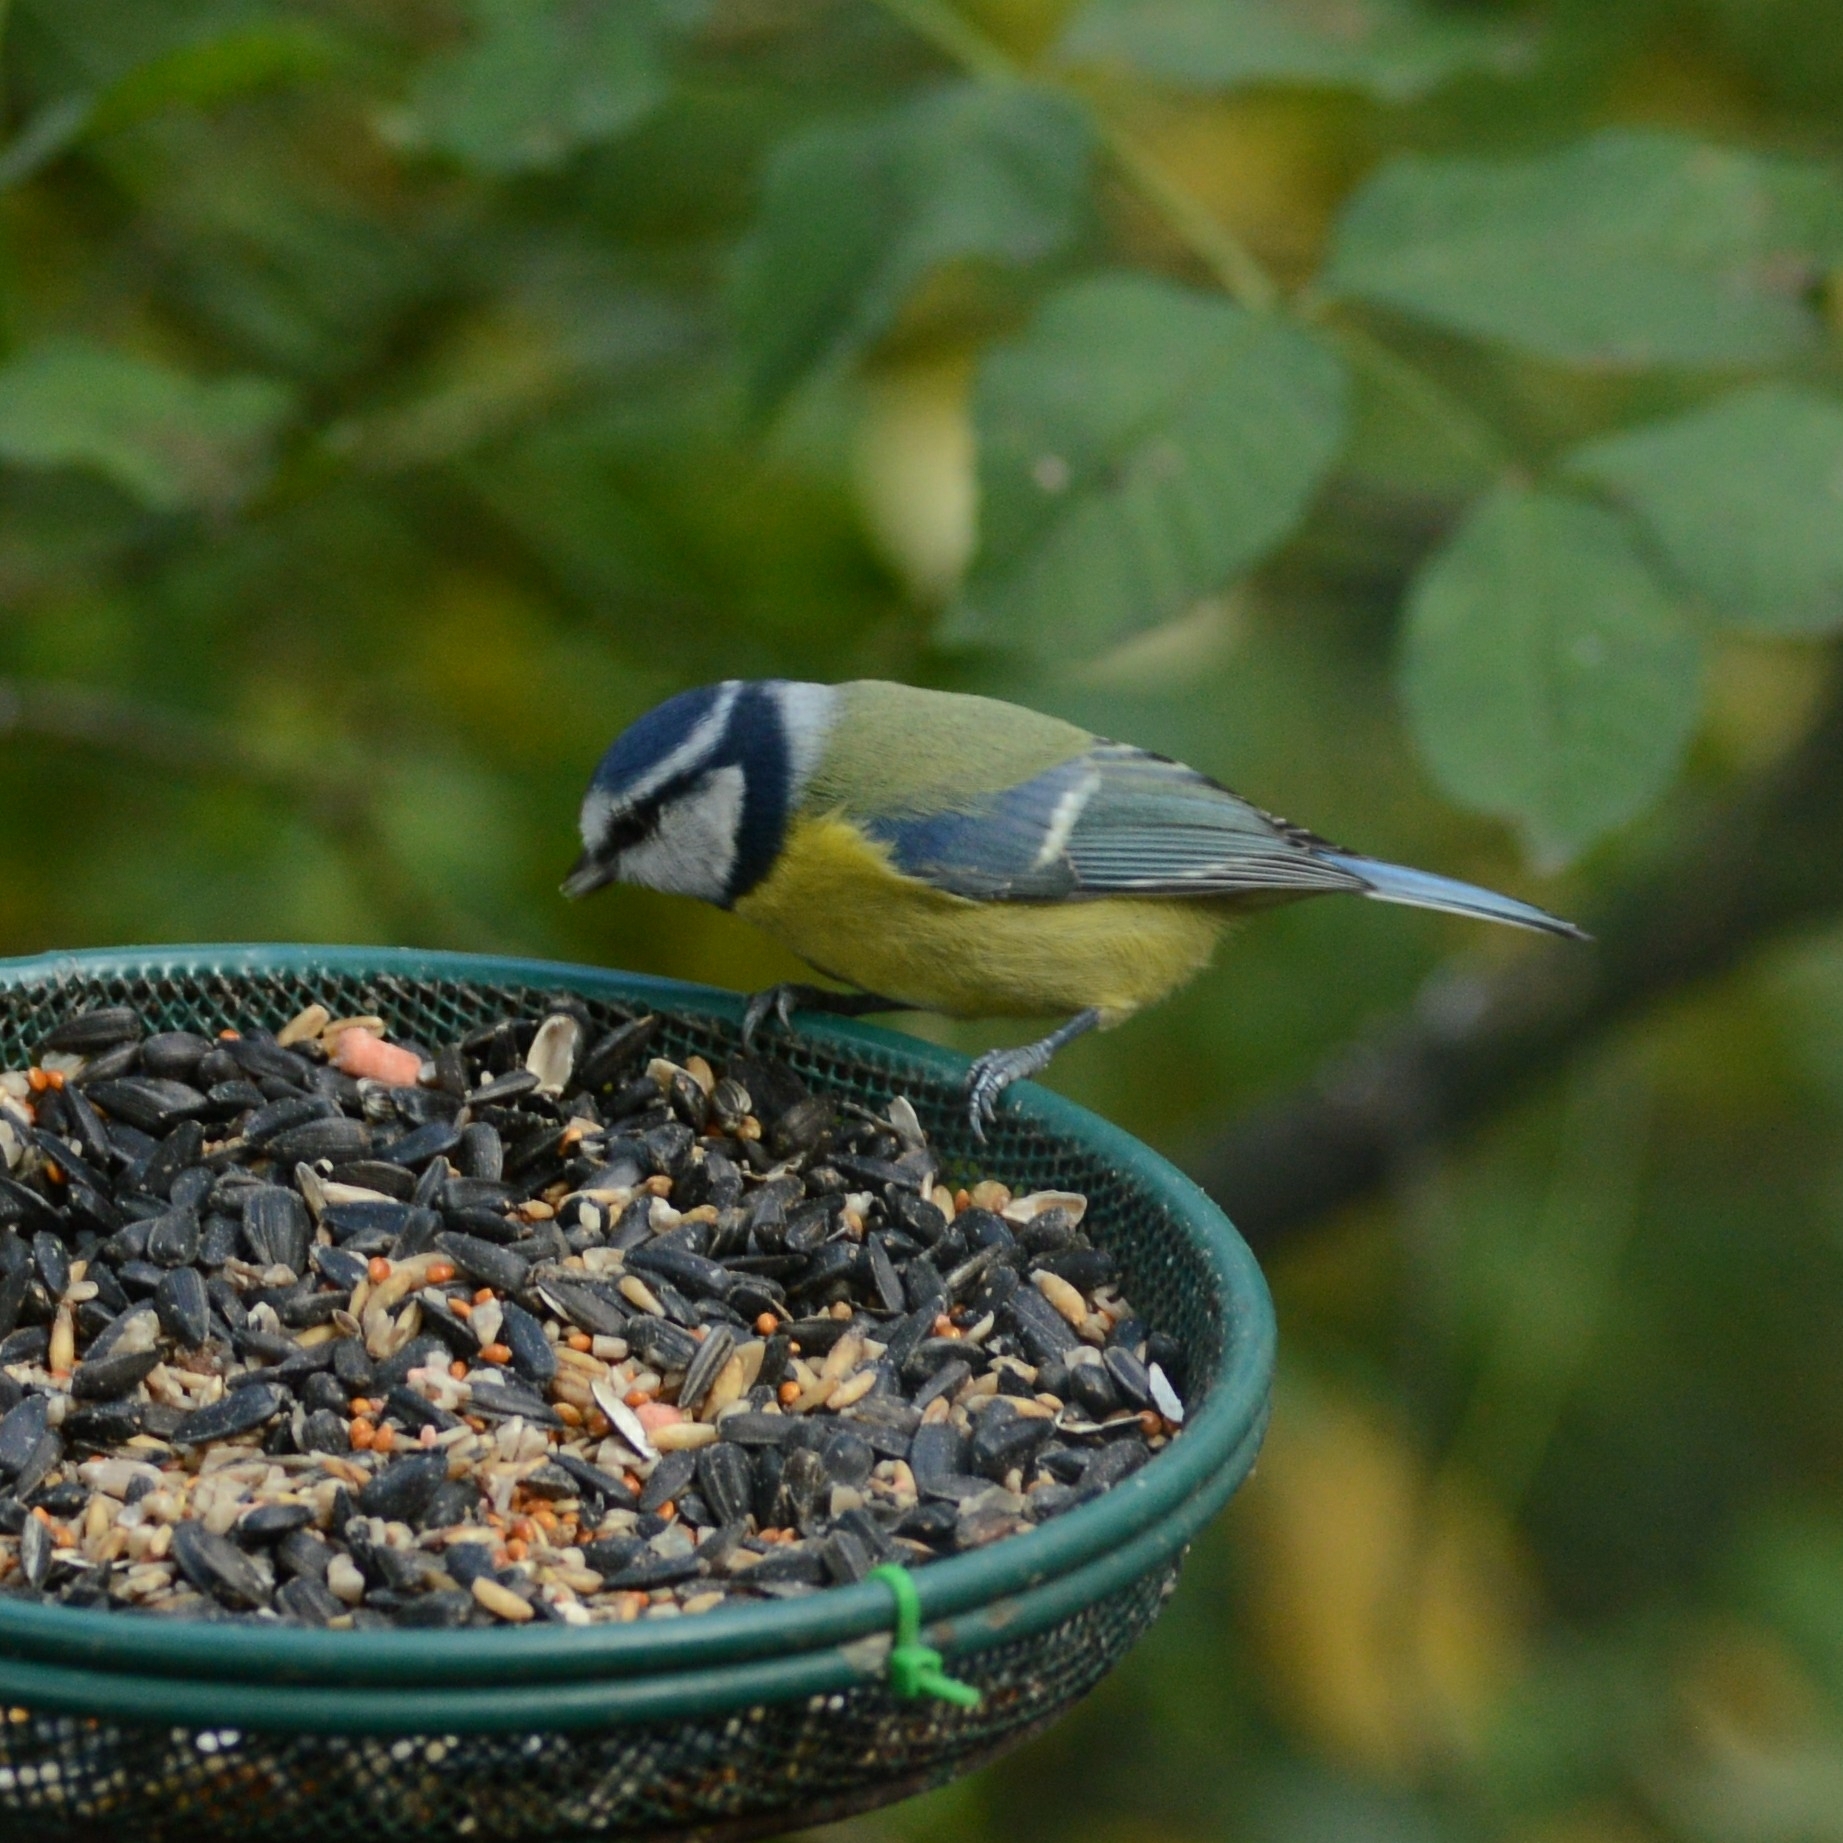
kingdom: Animalia
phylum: Chordata
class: Aves
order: Passeriformes
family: Paridae
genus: Cyanistes
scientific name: Cyanistes caeruleus
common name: Eurasian blue tit
